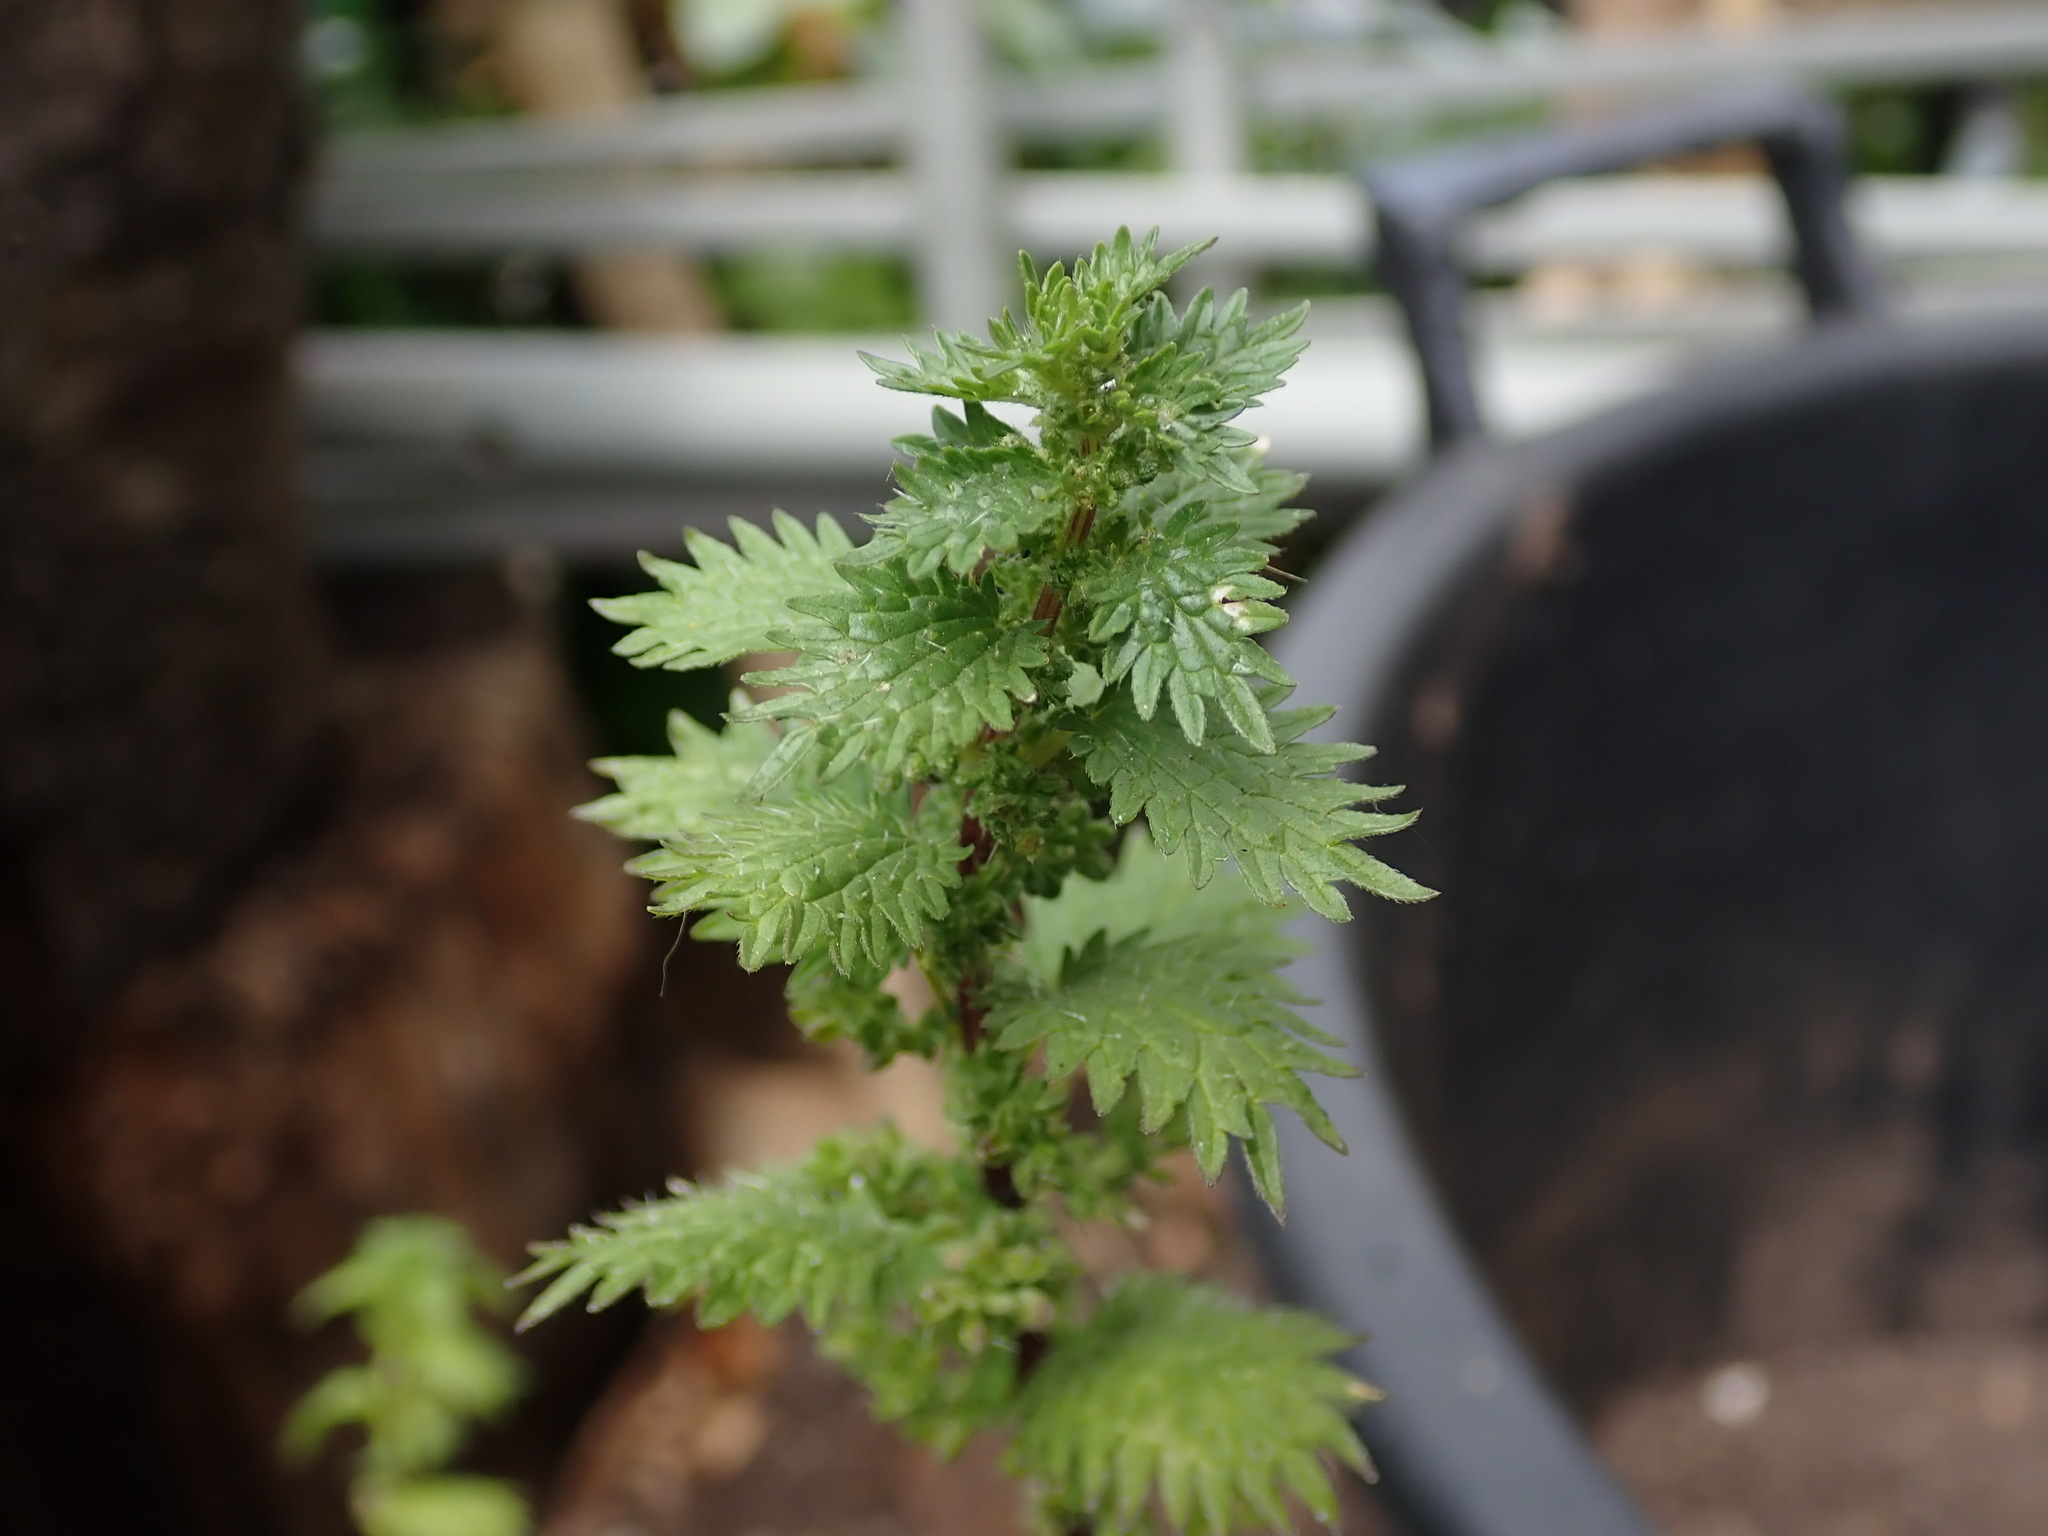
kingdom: Plantae
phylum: Tracheophyta
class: Magnoliopsida
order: Rosales
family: Urticaceae
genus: Urtica
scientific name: Urtica urens
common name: Dwarf nettle
